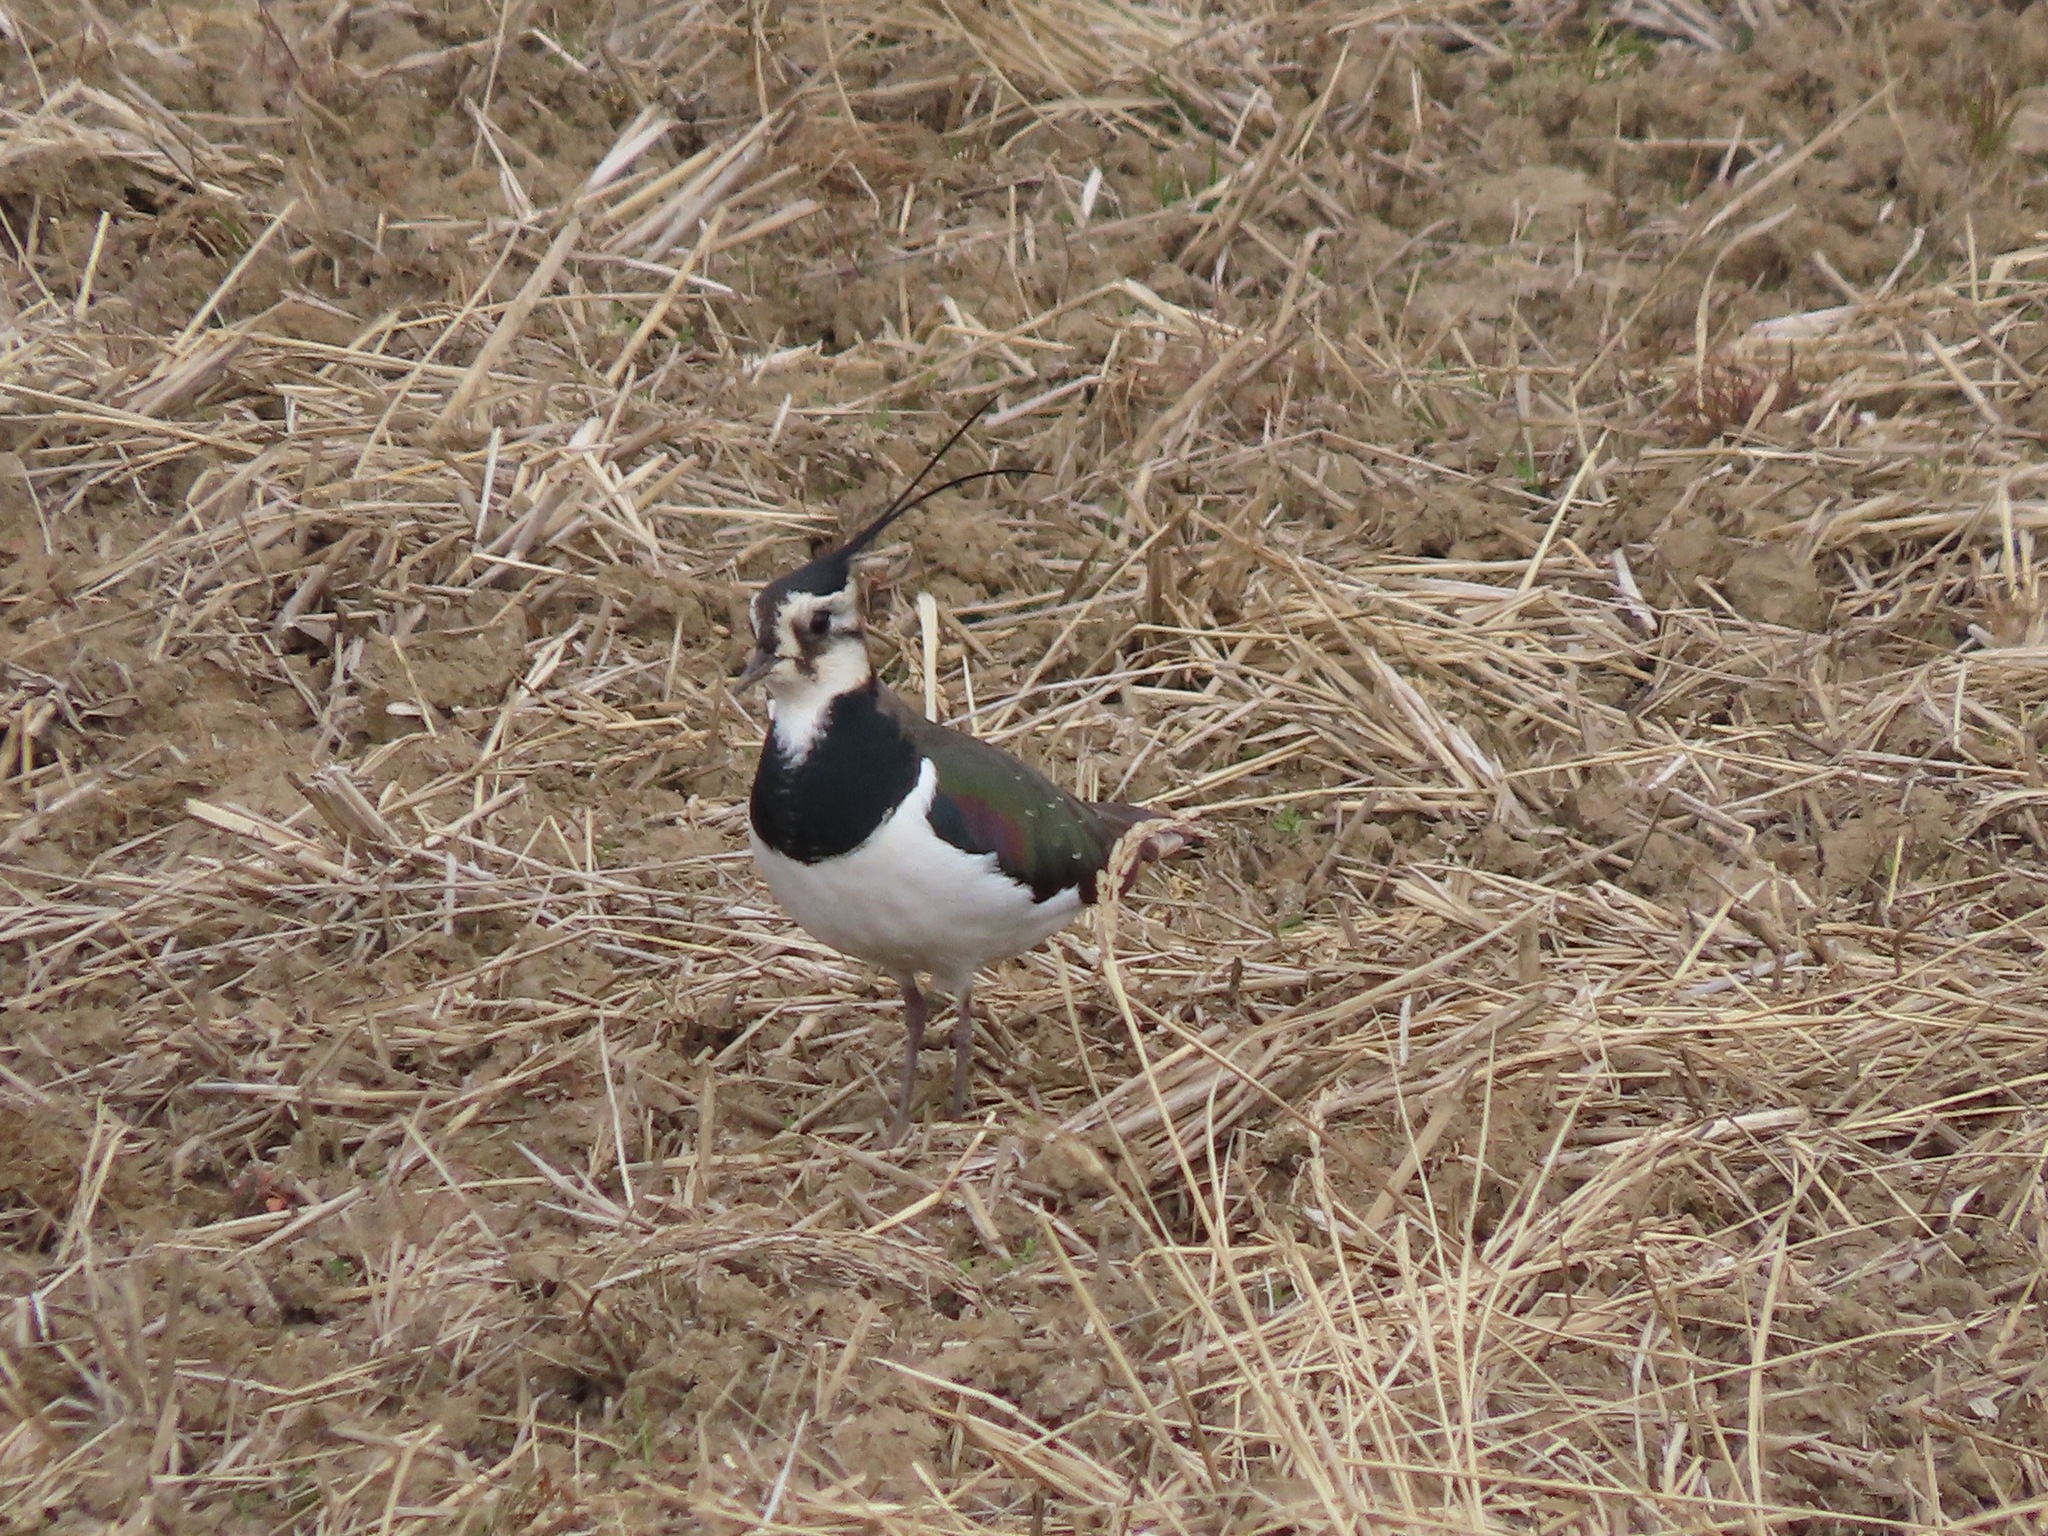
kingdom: Animalia
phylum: Chordata
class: Aves
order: Charadriiformes
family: Charadriidae
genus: Vanellus
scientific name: Vanellus vanellus
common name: Northern lapwing
